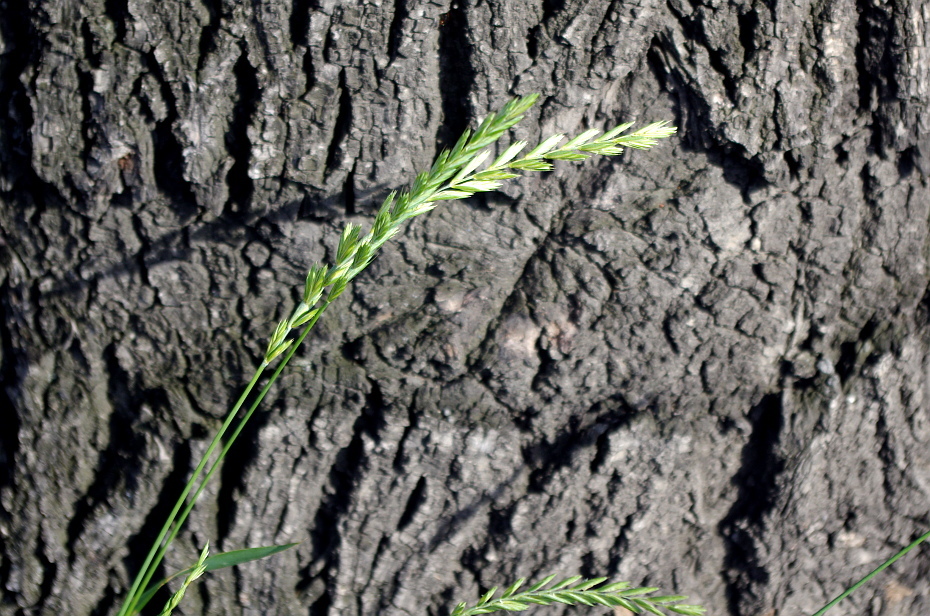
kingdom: Plantae
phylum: Tracheophyta
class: Liliopsida
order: Poales
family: Poaceae
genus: Elymus
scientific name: Elymus repens
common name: Quackgrass
